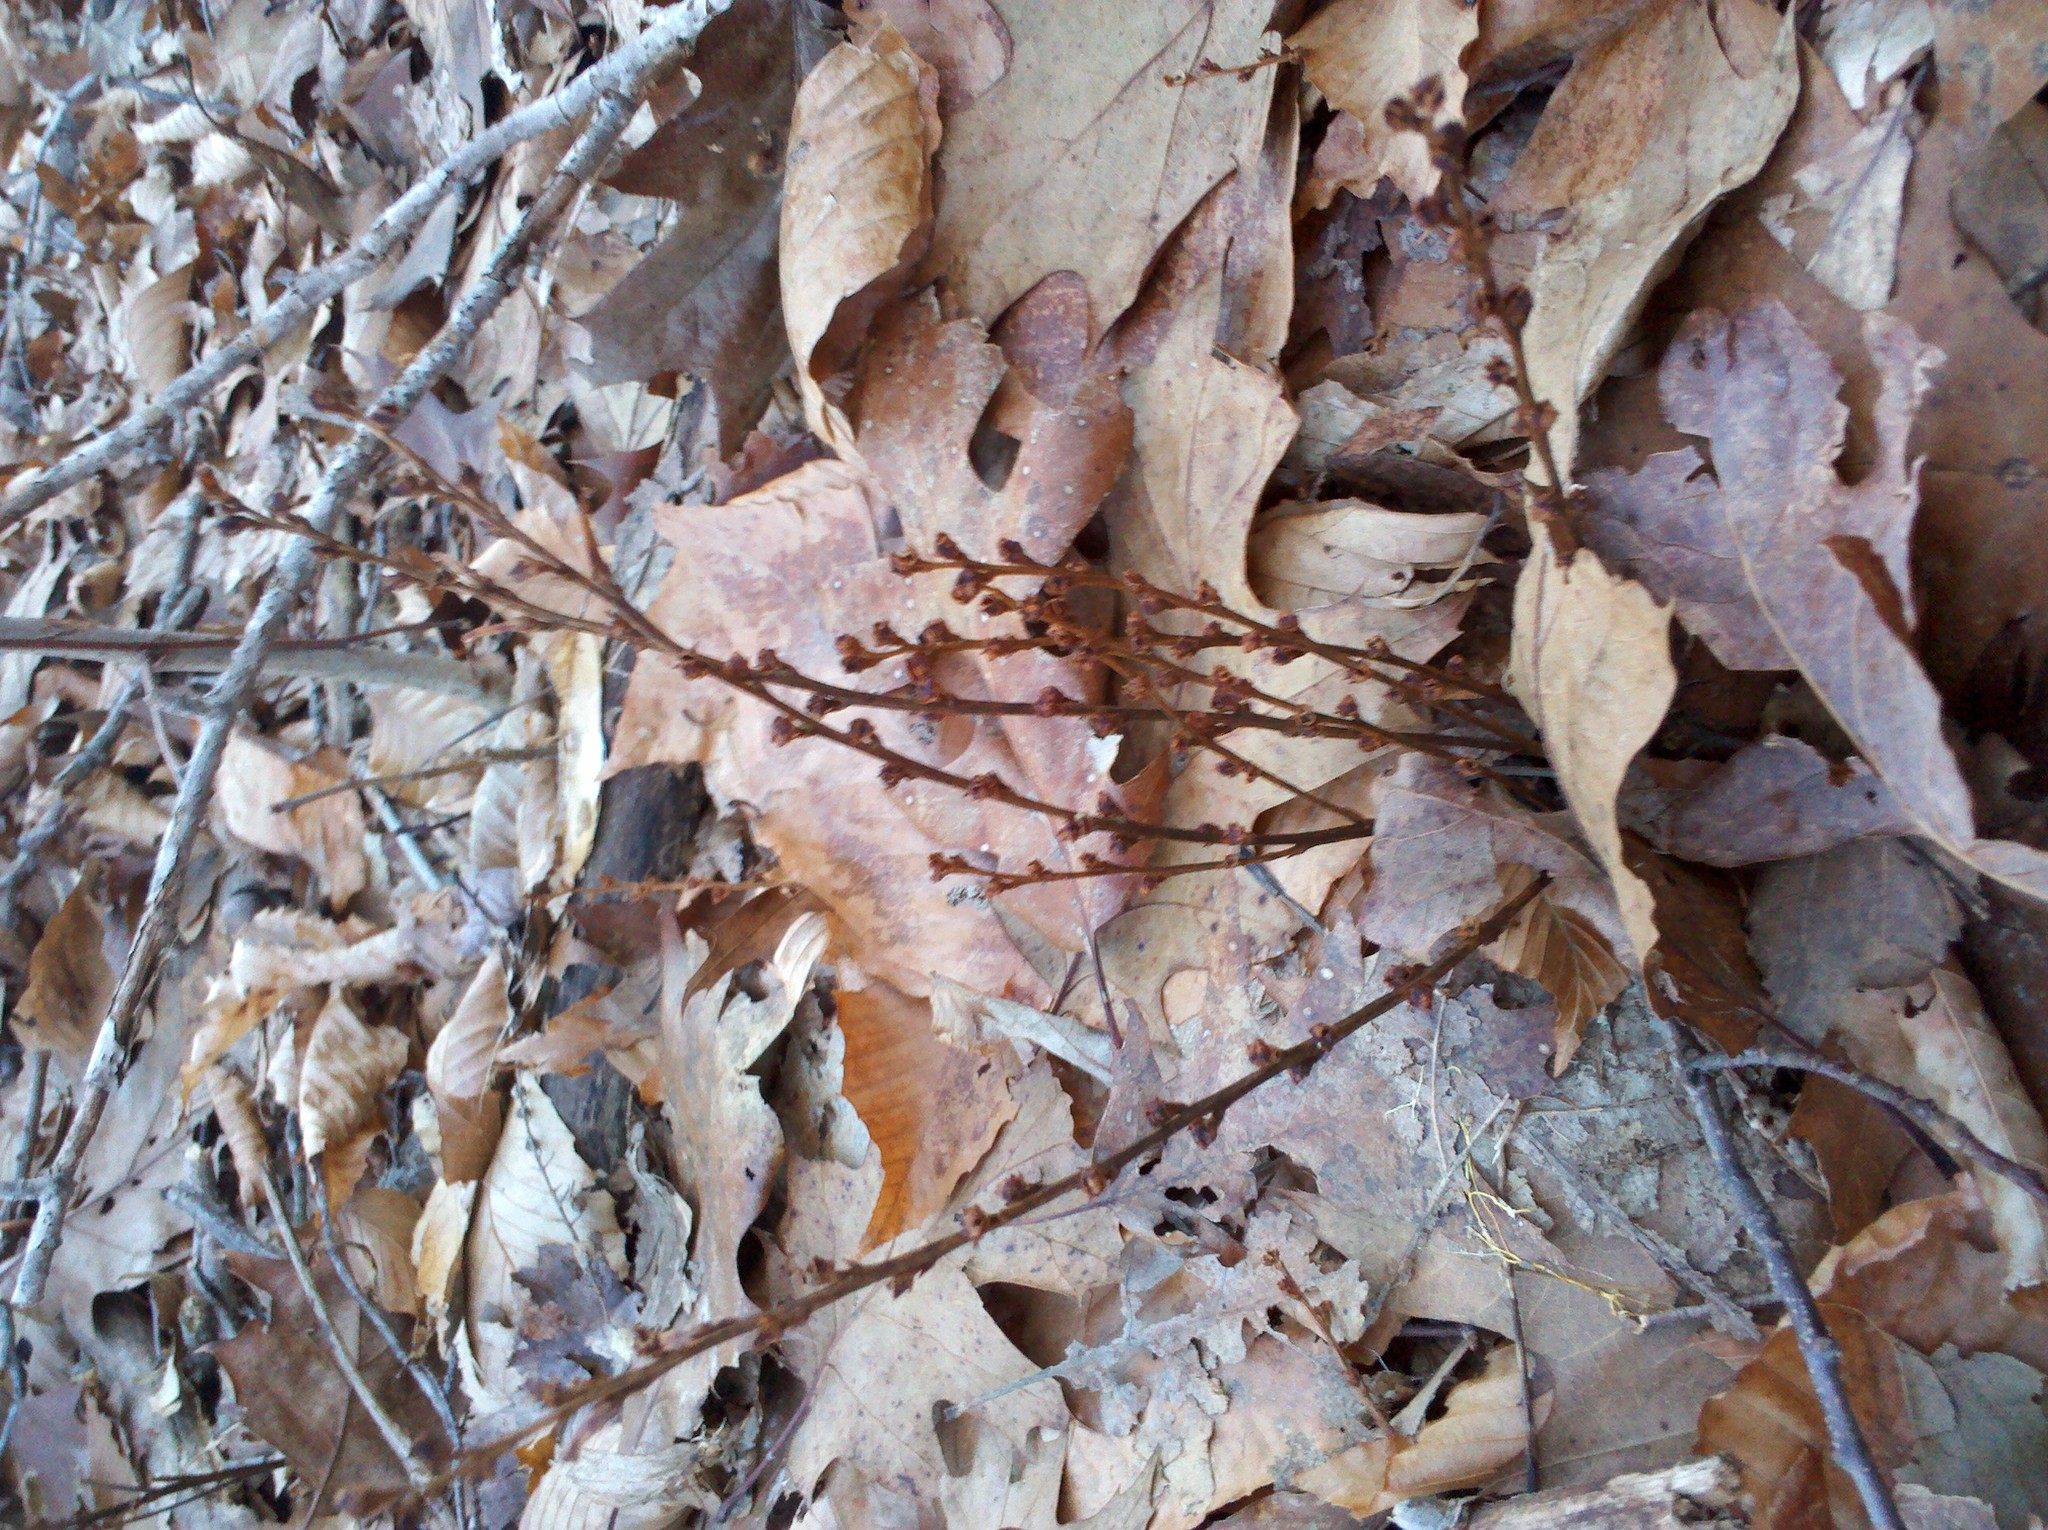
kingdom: Plantae
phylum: Tracheophyta
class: Magnoliopsida
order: Lamiales
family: Orobanchaceae
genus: Epifagus
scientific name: Epifagus virginiana
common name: Beechdrops
